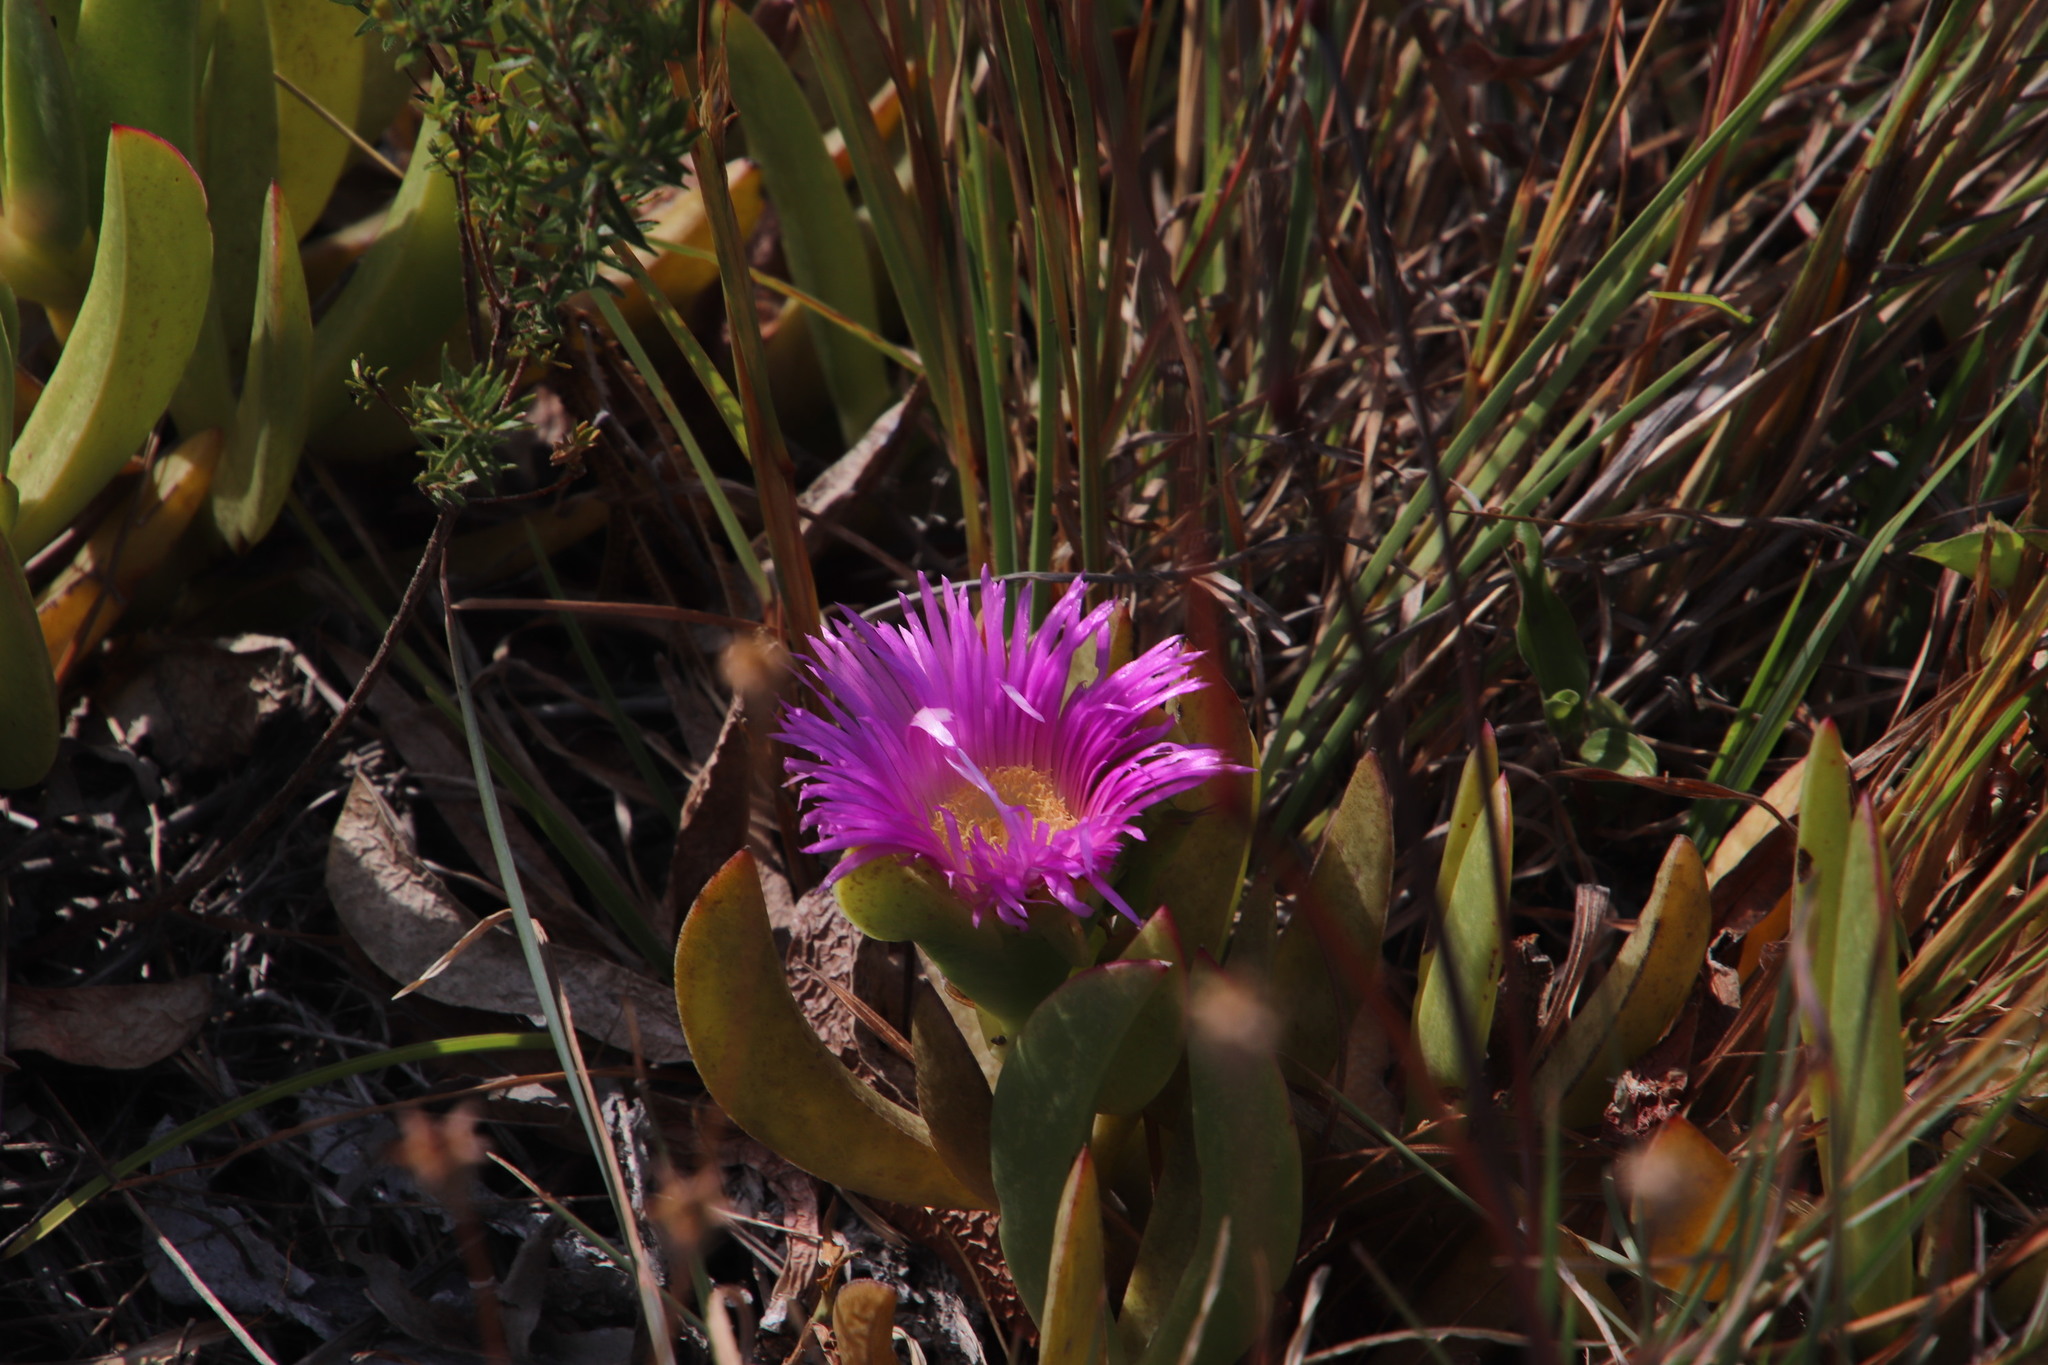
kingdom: Plantae
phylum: Tracheophyta
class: Magnoliopsida
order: Caryophyllales
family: Aizoaceae
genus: Carpobrotus
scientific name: Carpobrotus acinaciformis
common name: Sally-my-handsome
